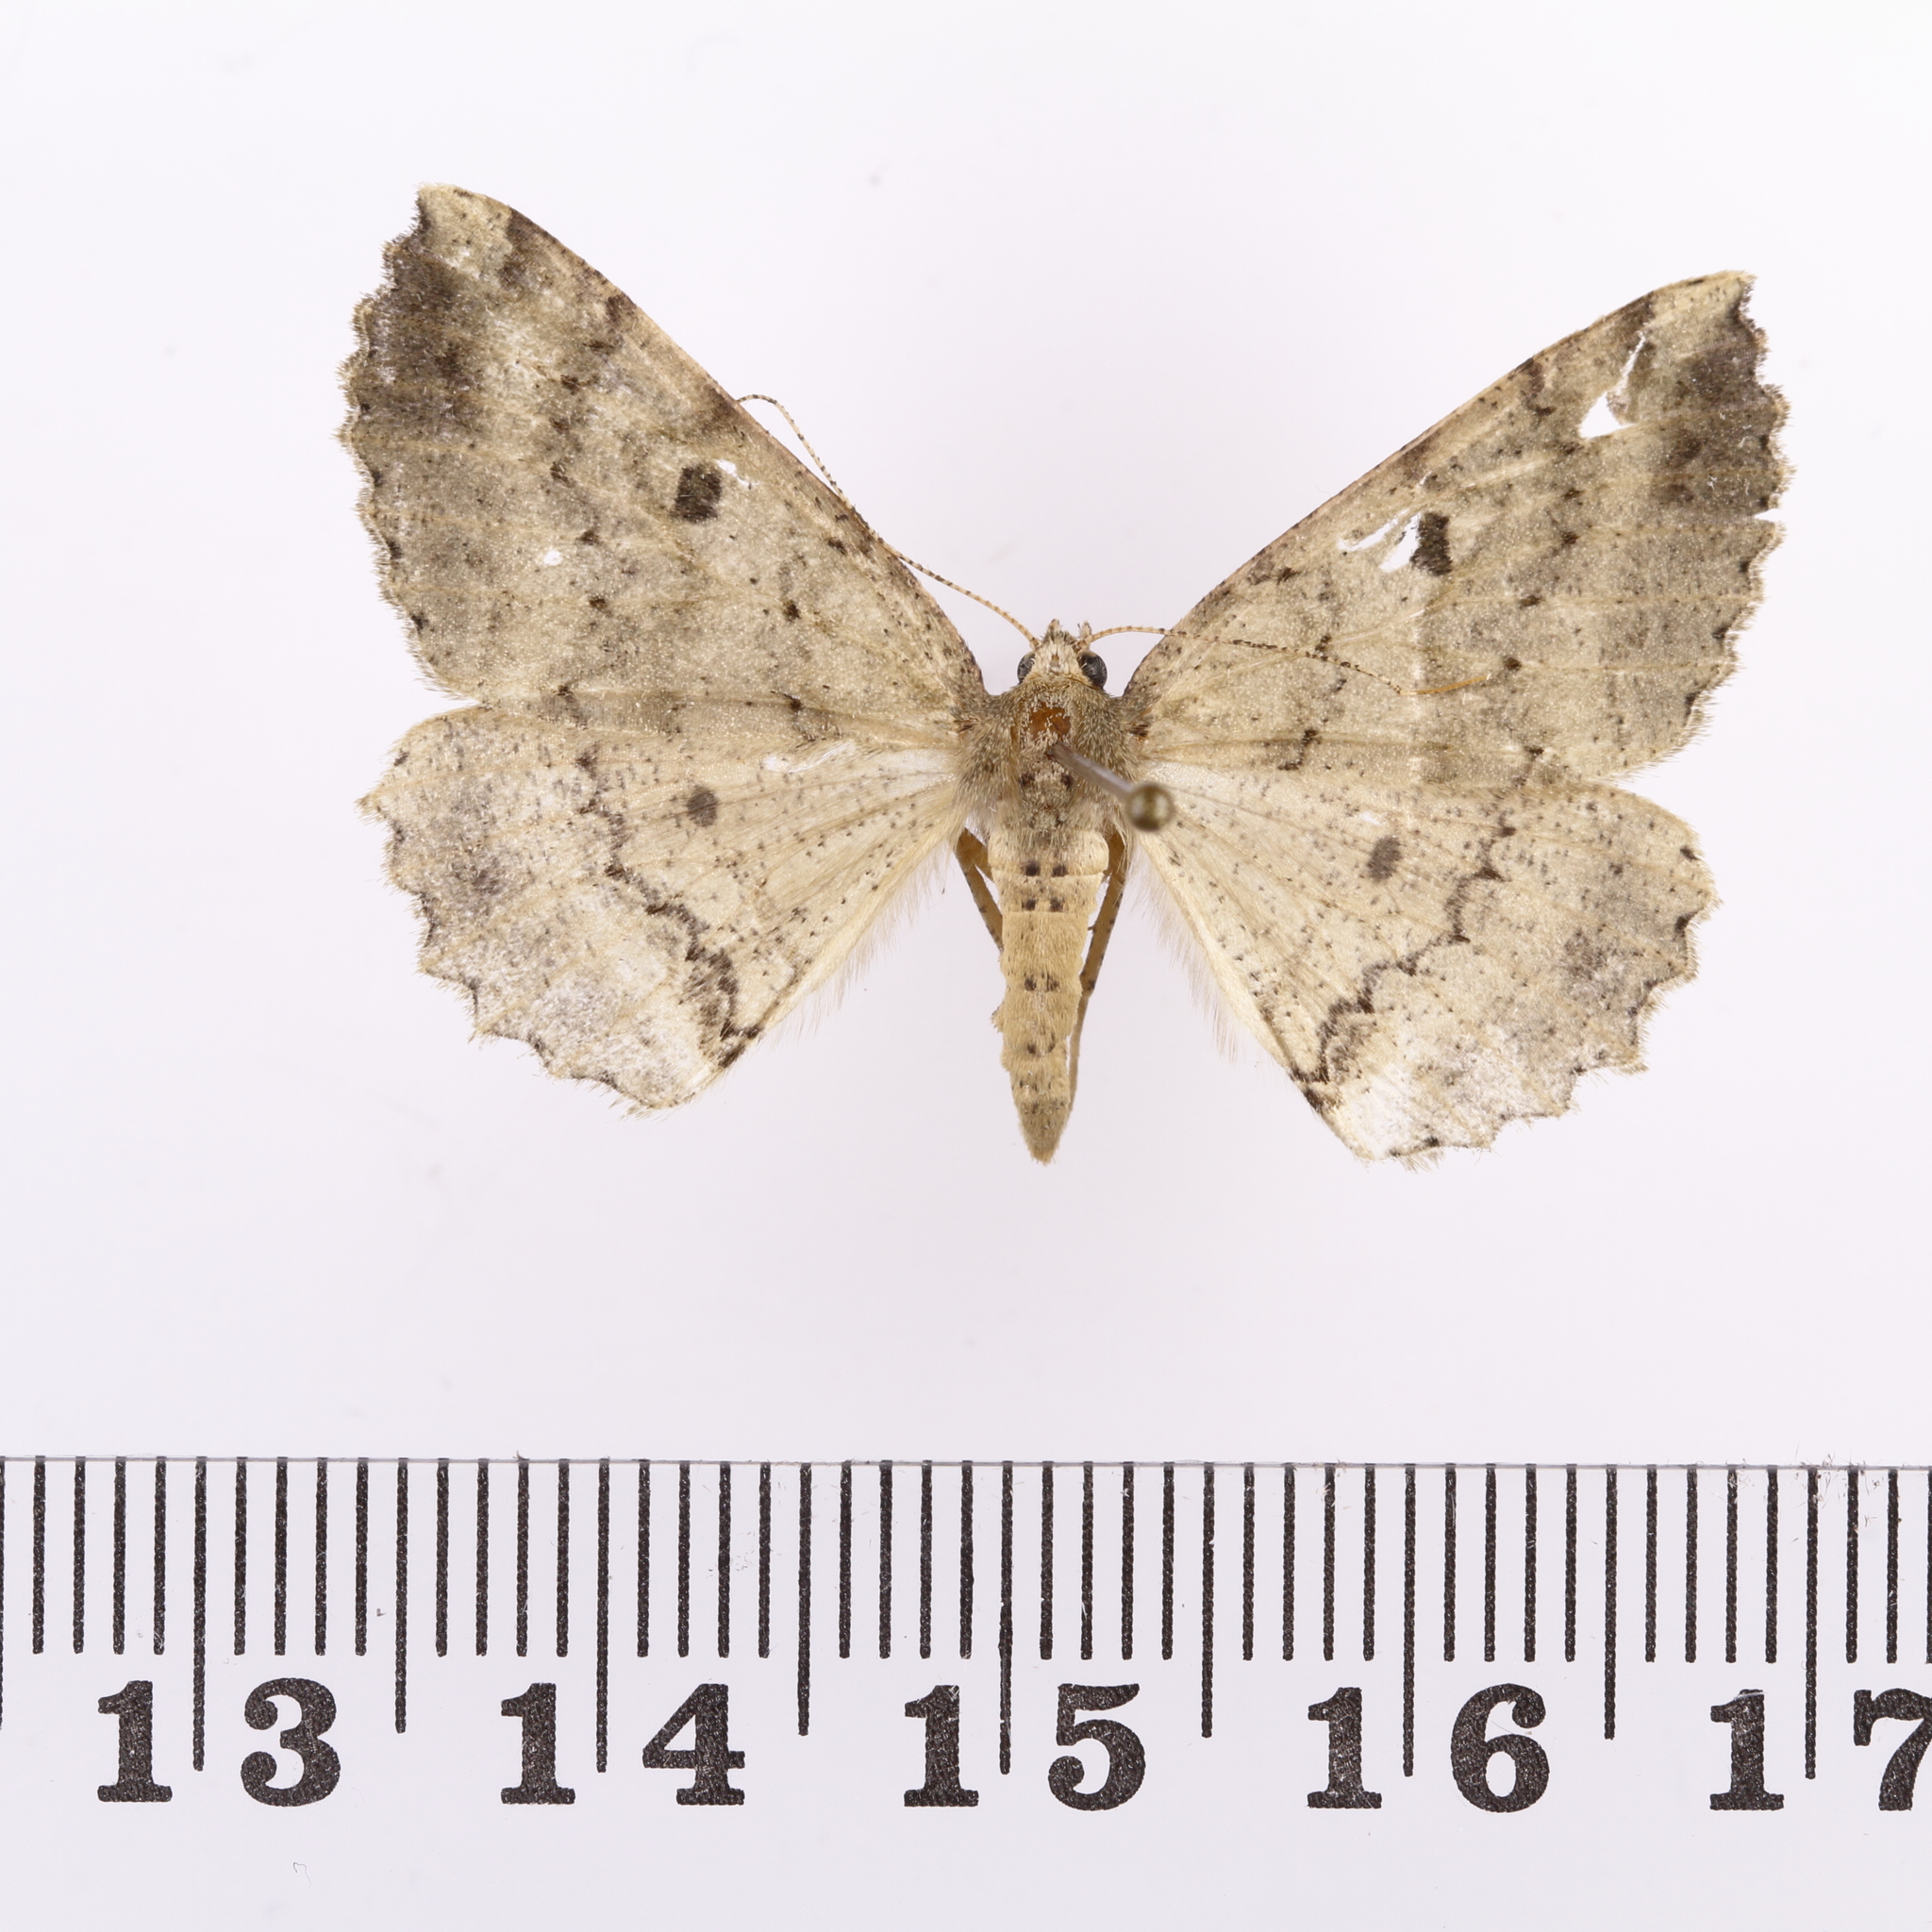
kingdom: Animalia
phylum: Arthropoda
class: Insecta
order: Lepidoptera
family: Geometridae
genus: Cleora
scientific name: Cleora scriptaria
